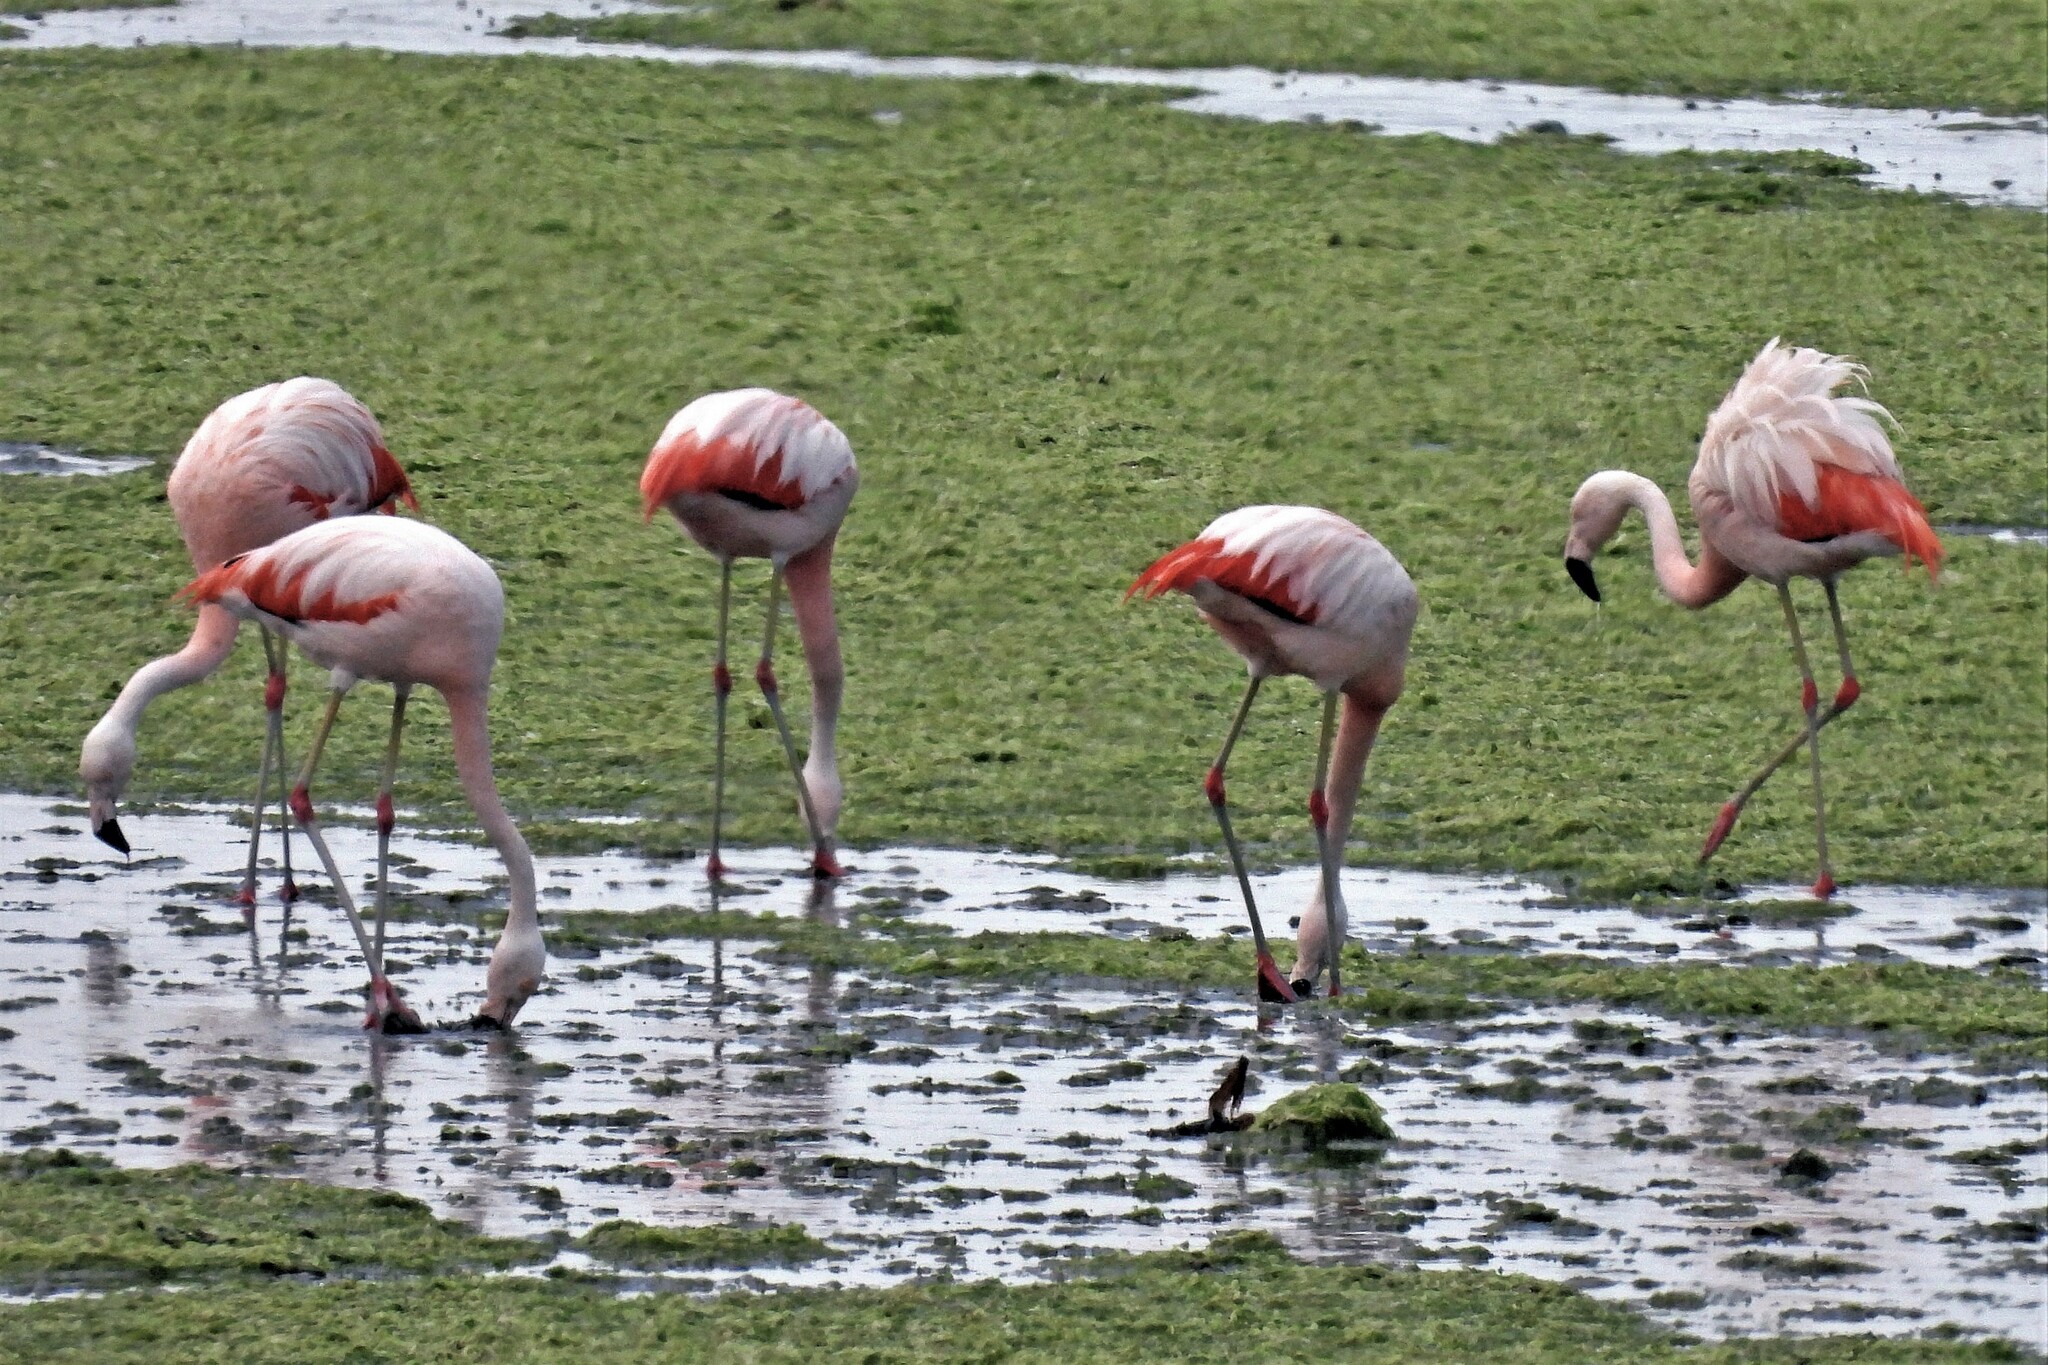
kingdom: Animalia
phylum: Chordata
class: Aves
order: Phoenicopteriformes
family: Phoenicopteridae
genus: Phoenicopterus
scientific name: Phoenicopterus chilensis
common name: Chilean flamingo
